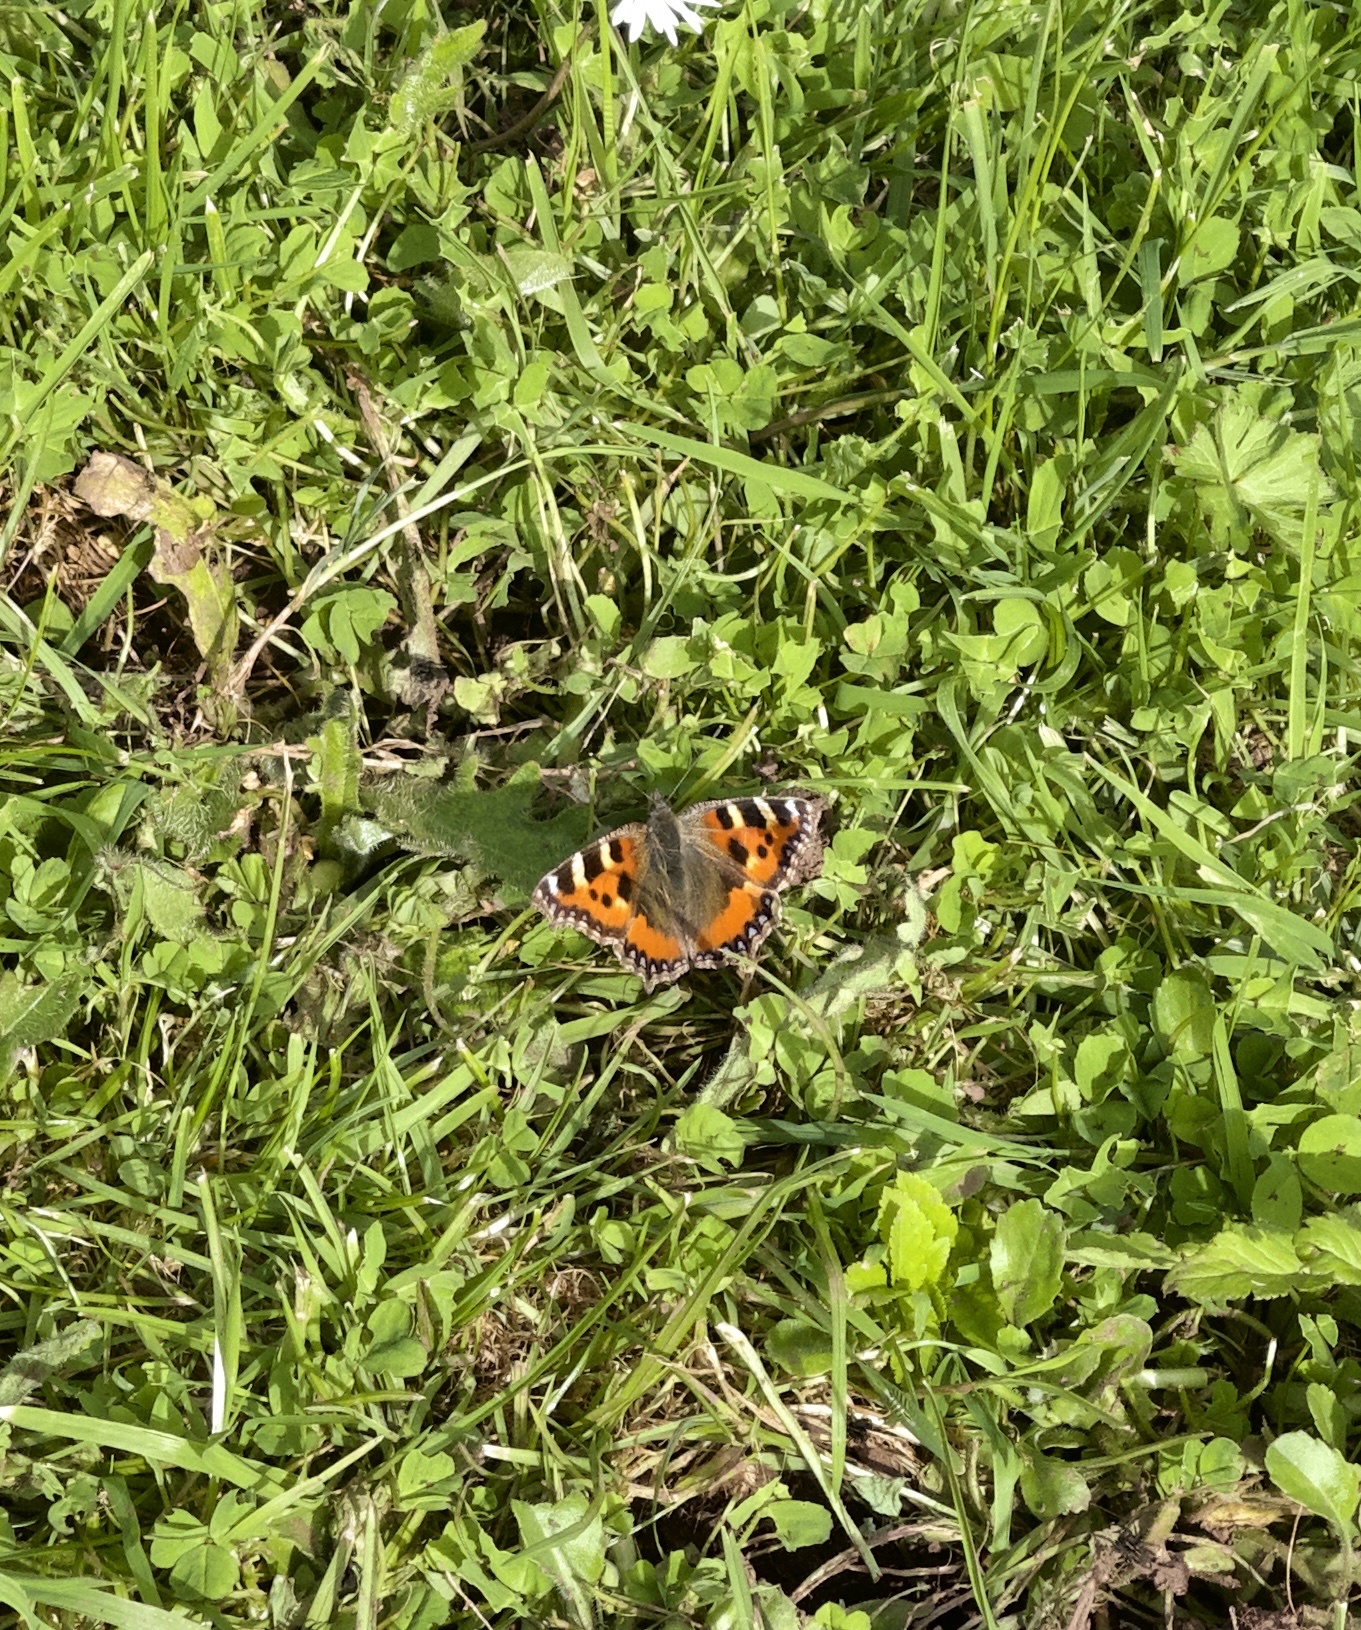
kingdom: Animalia
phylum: Arthropoda
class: Insecta
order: Lepidoptera
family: Nymphalidae
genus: Aglais
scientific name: Aglais urticae
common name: Small tortoiseshell
